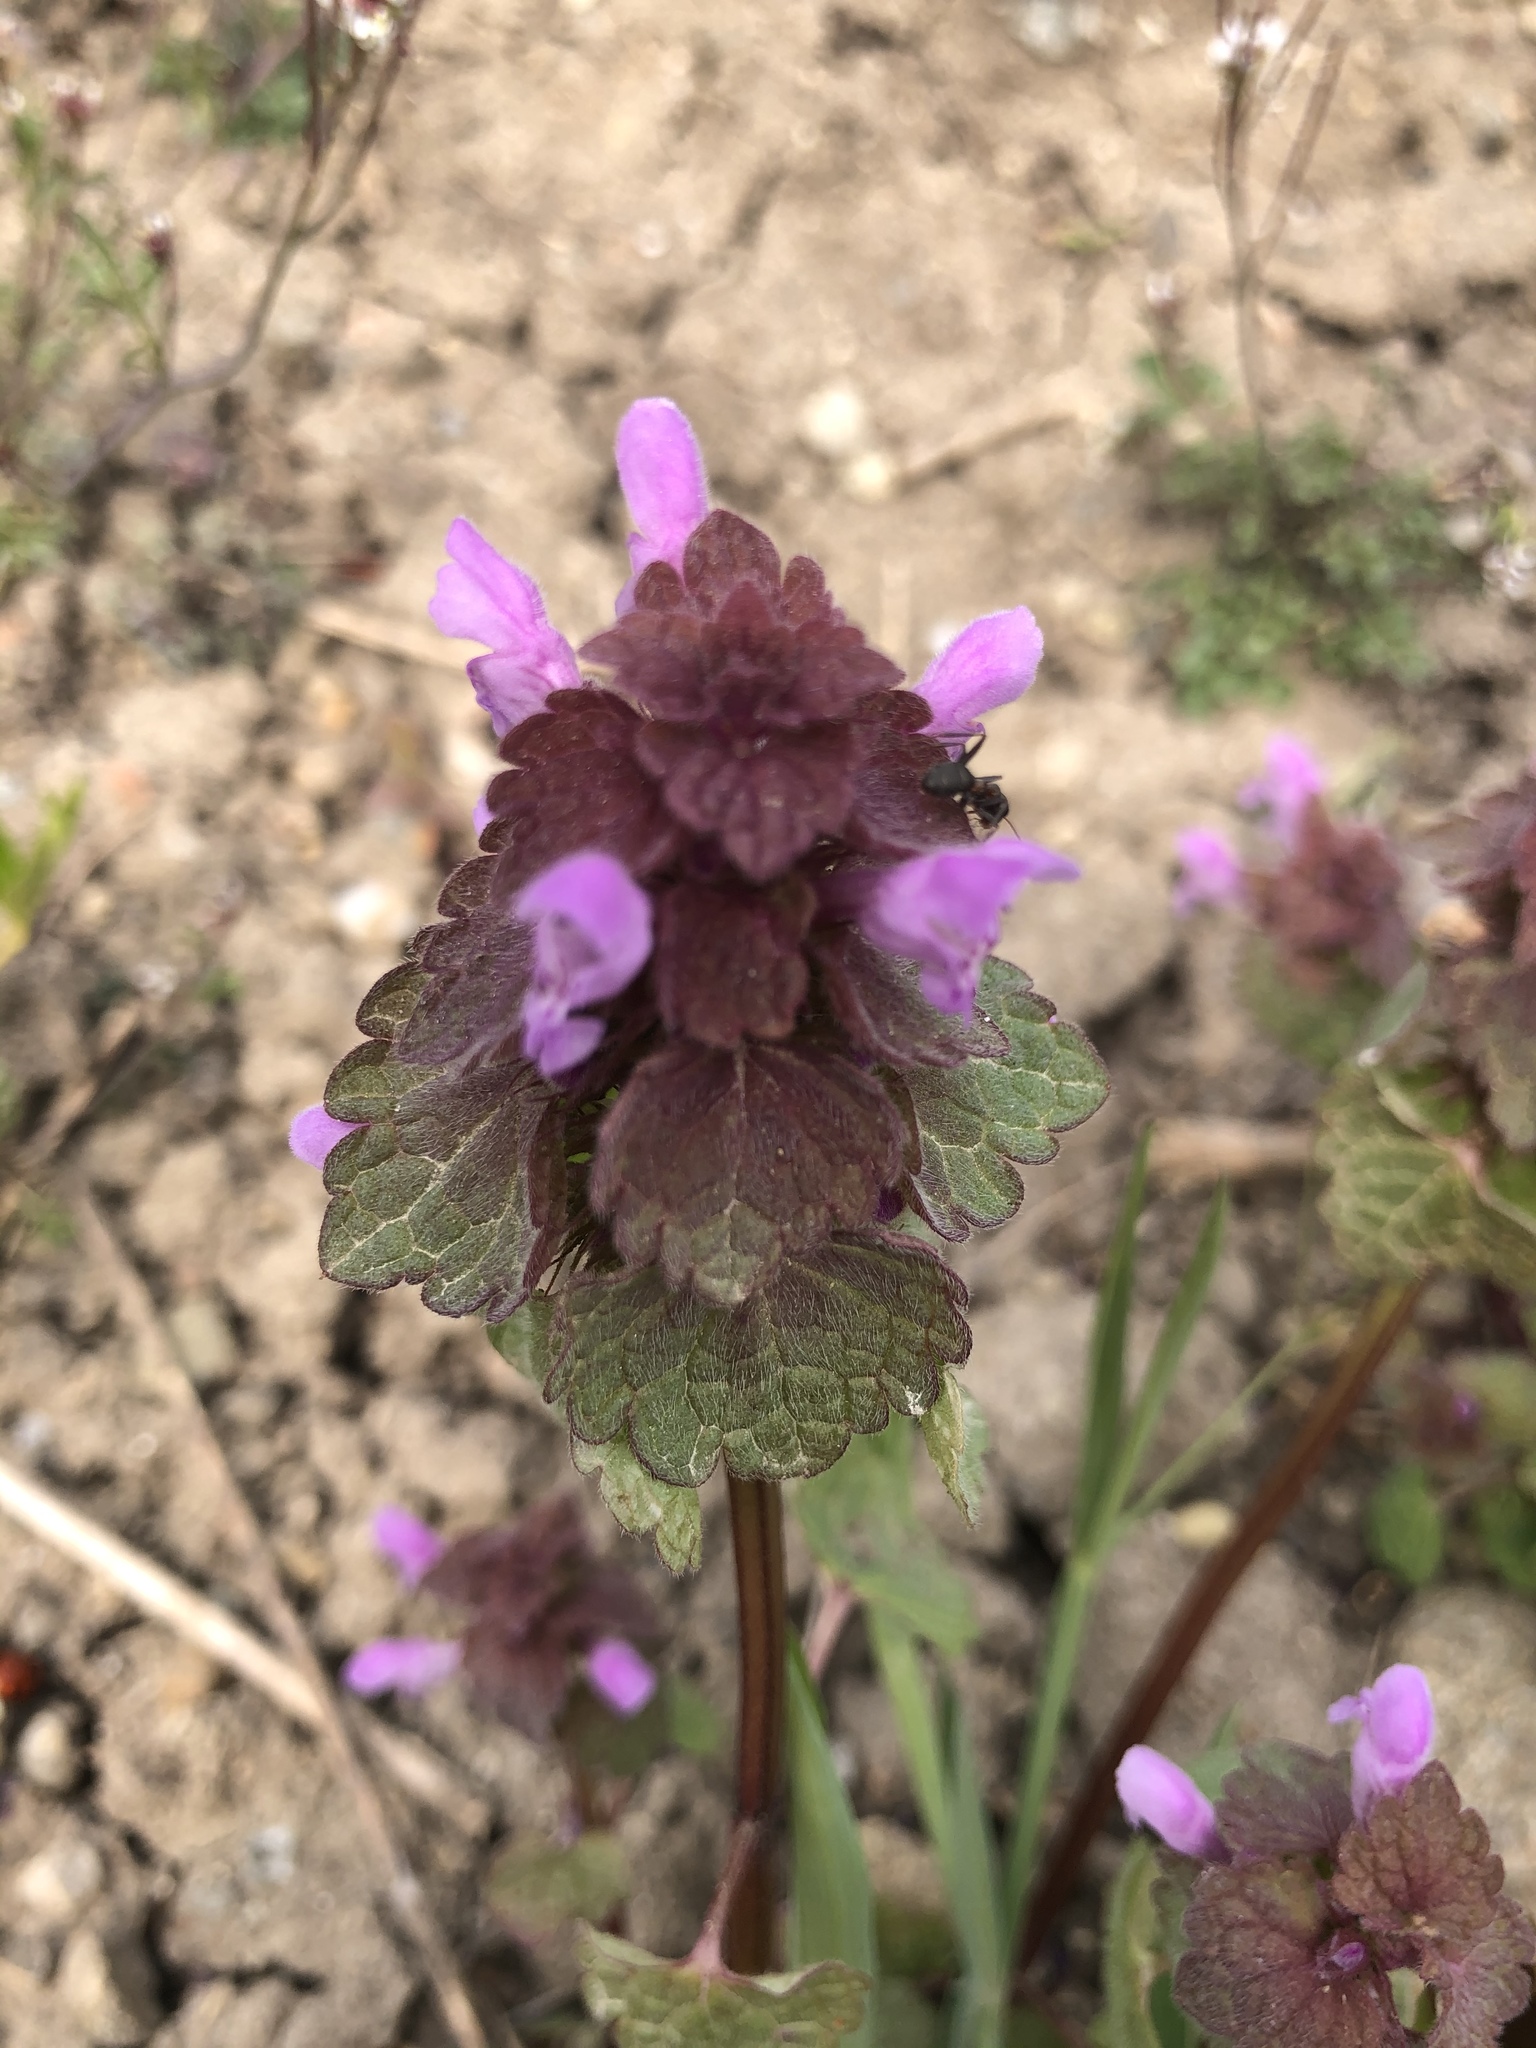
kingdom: Plantae
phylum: Tracheophyta
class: Magnoliopsida
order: Lamiales
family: Lamiaceae
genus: Lamium
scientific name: Lamium purpureum
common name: Red dead-nettle
